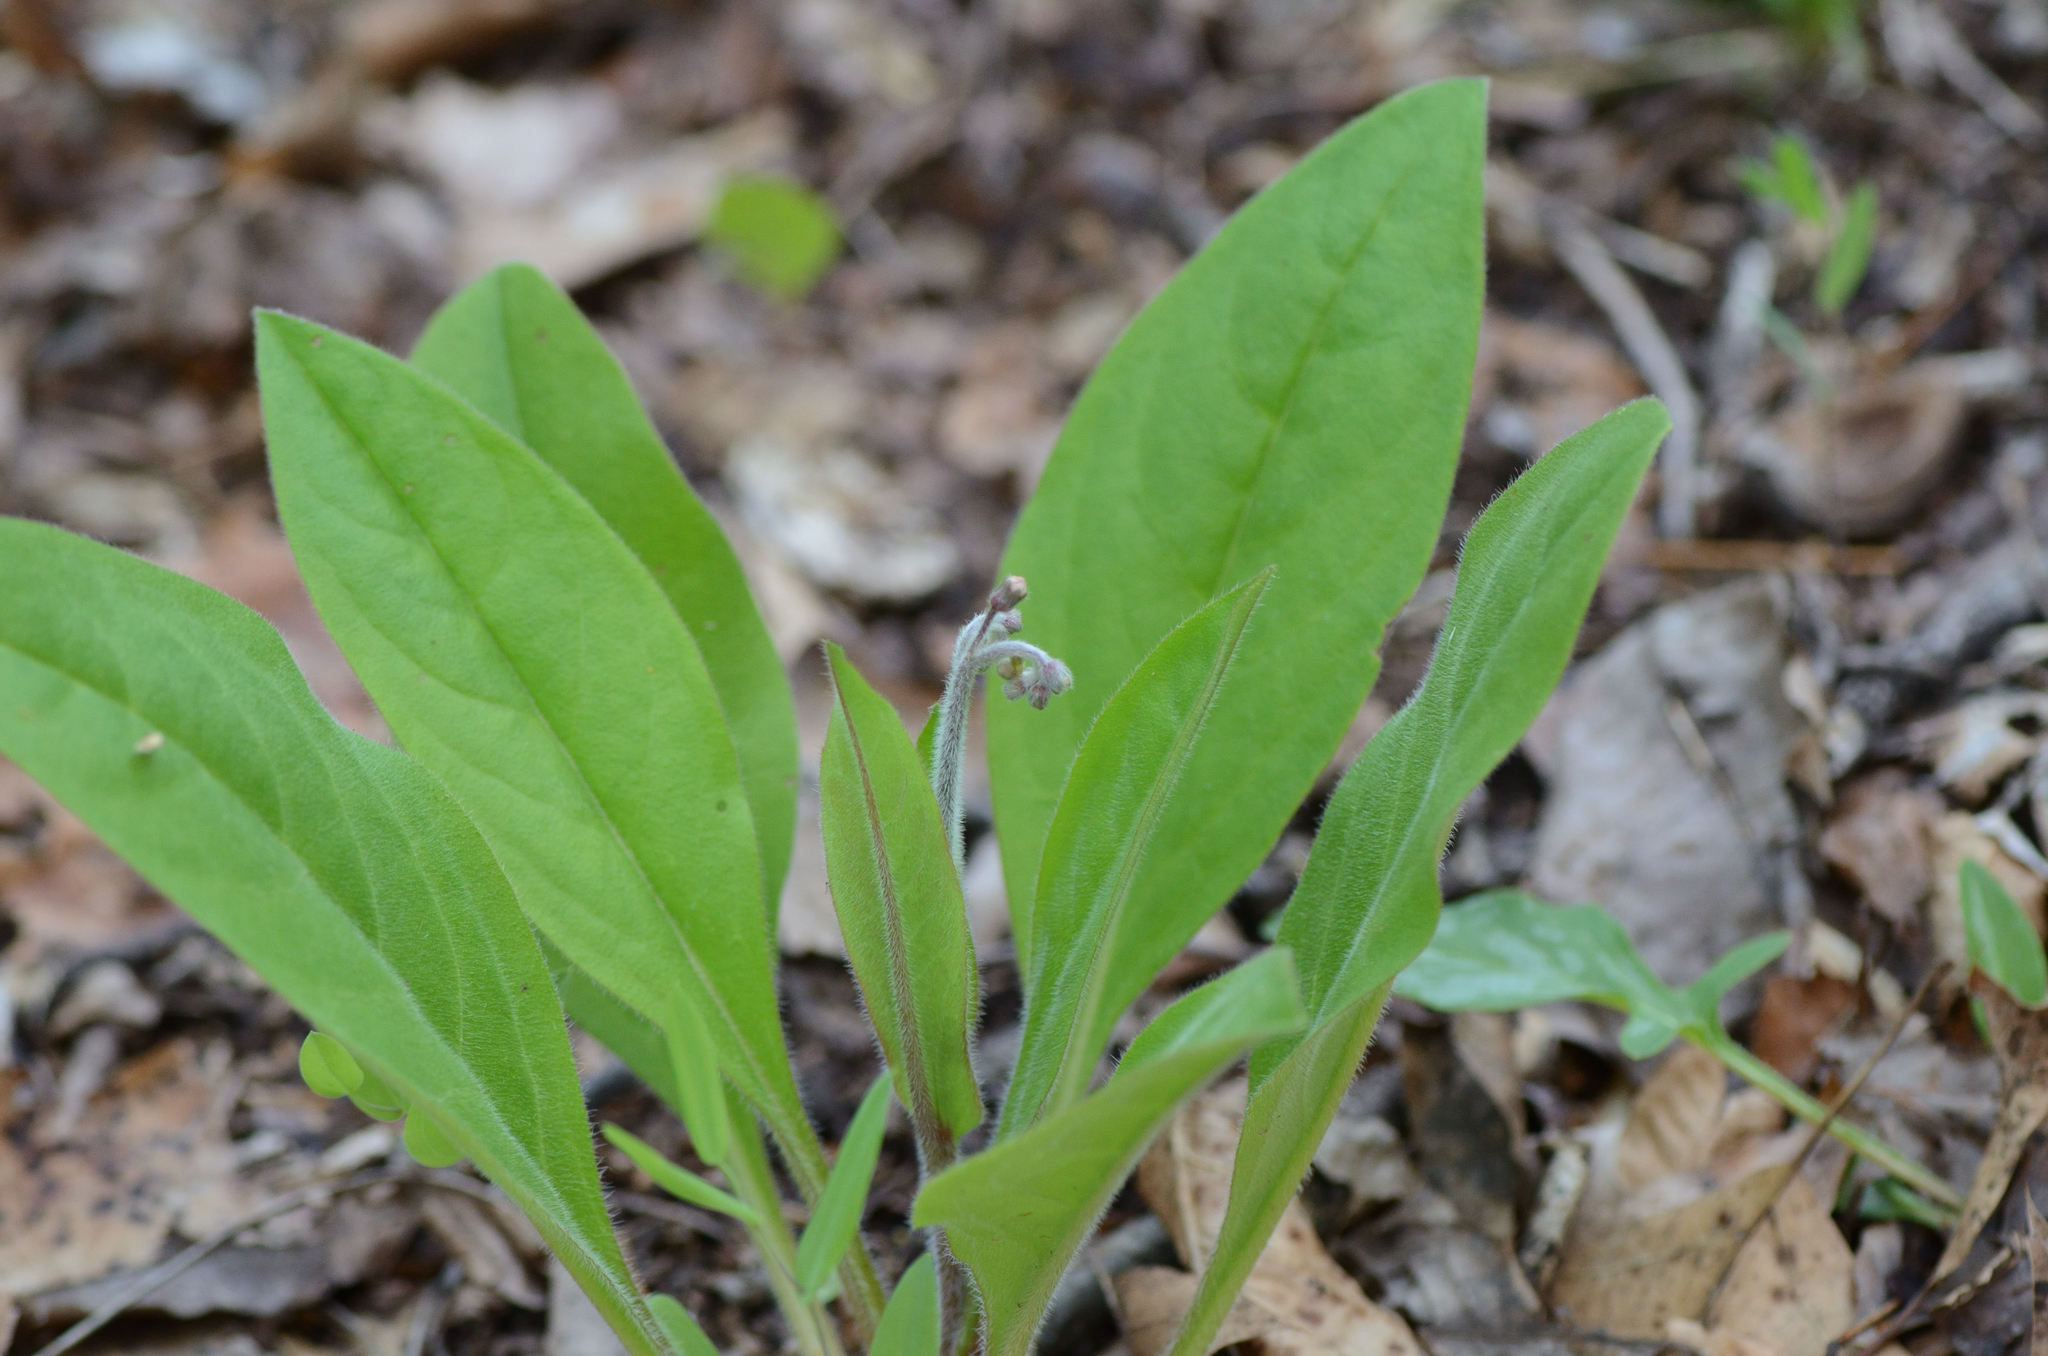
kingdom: Plantae
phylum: Tracheophyta
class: Magnoliopsida
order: Boraginales
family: Boraginaceae
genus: Andersonglossum
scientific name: Andersonglossum virginianum
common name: Wild comfrey
